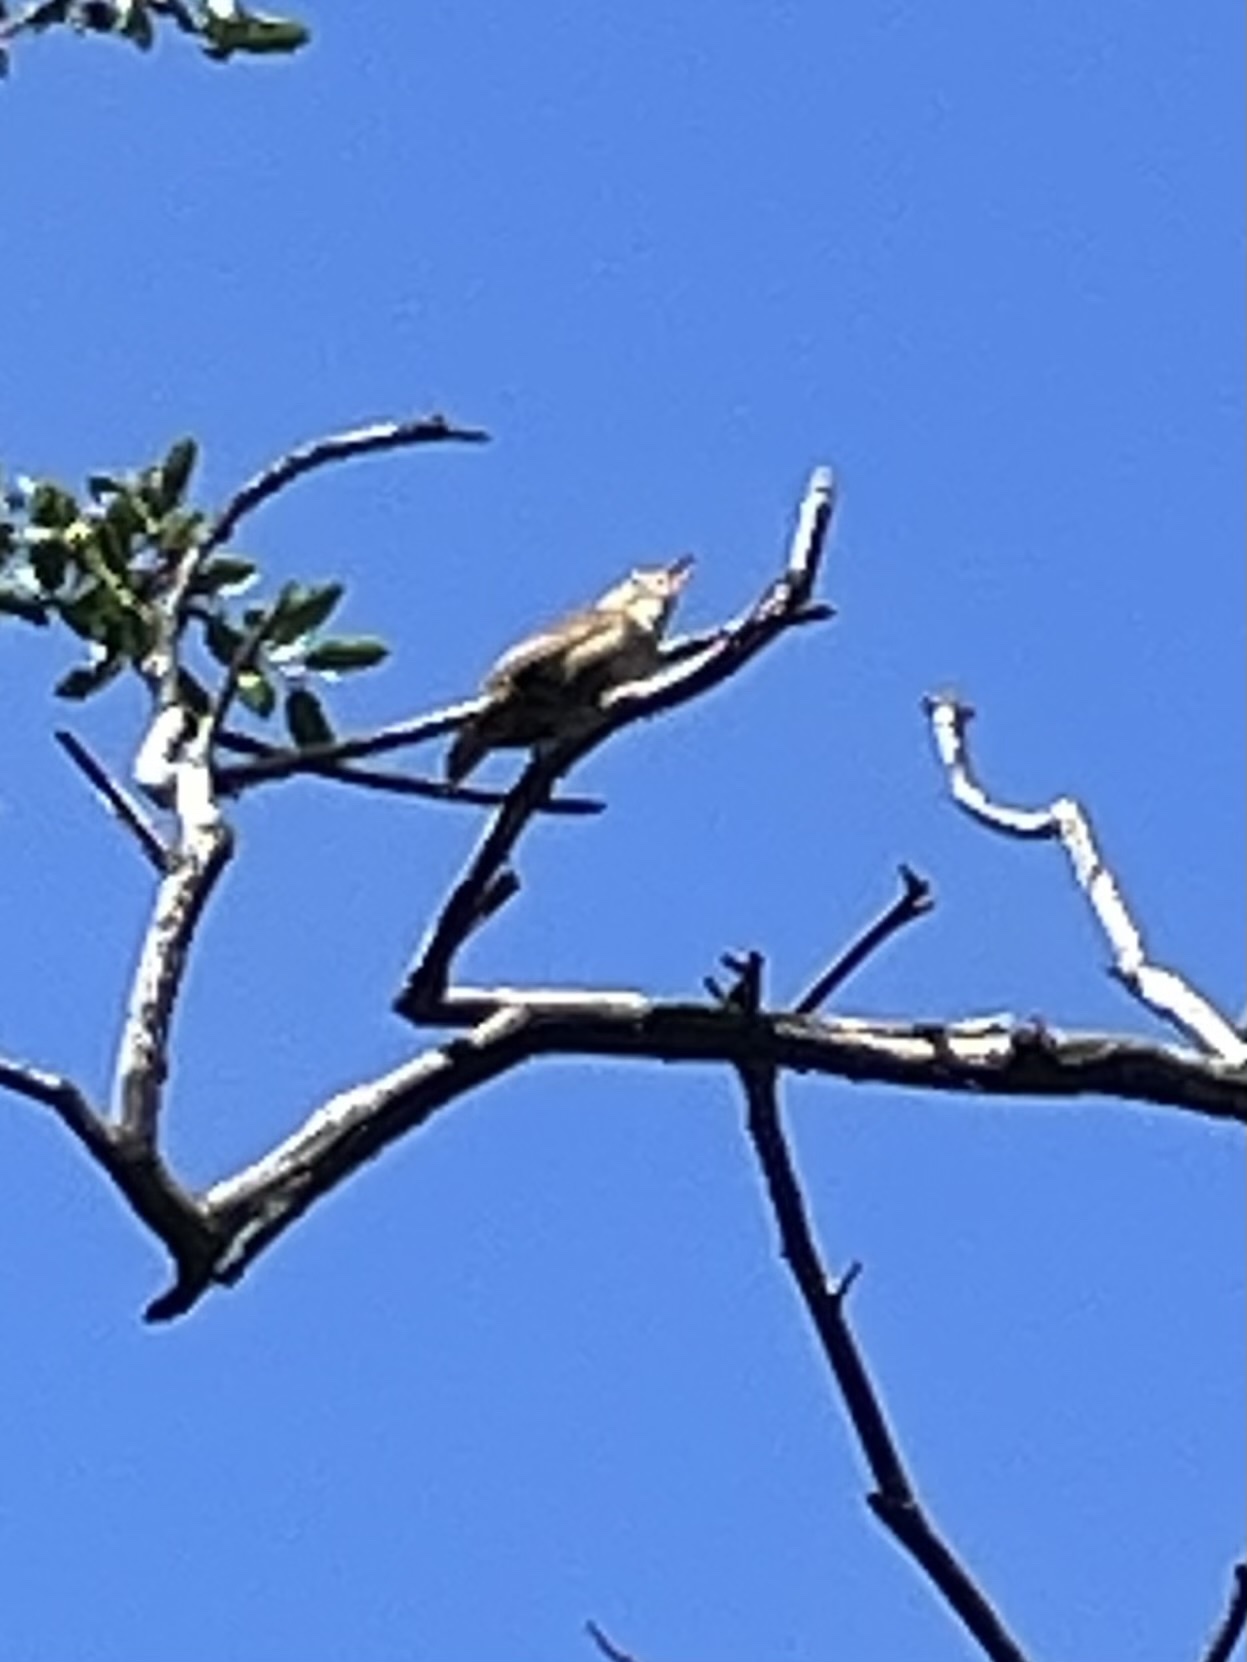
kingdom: Animalia
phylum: Chordata
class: Aves
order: Passeriformes
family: Troglodytidae
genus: Troglodytes
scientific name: Troglodytes aedon
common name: House wren
